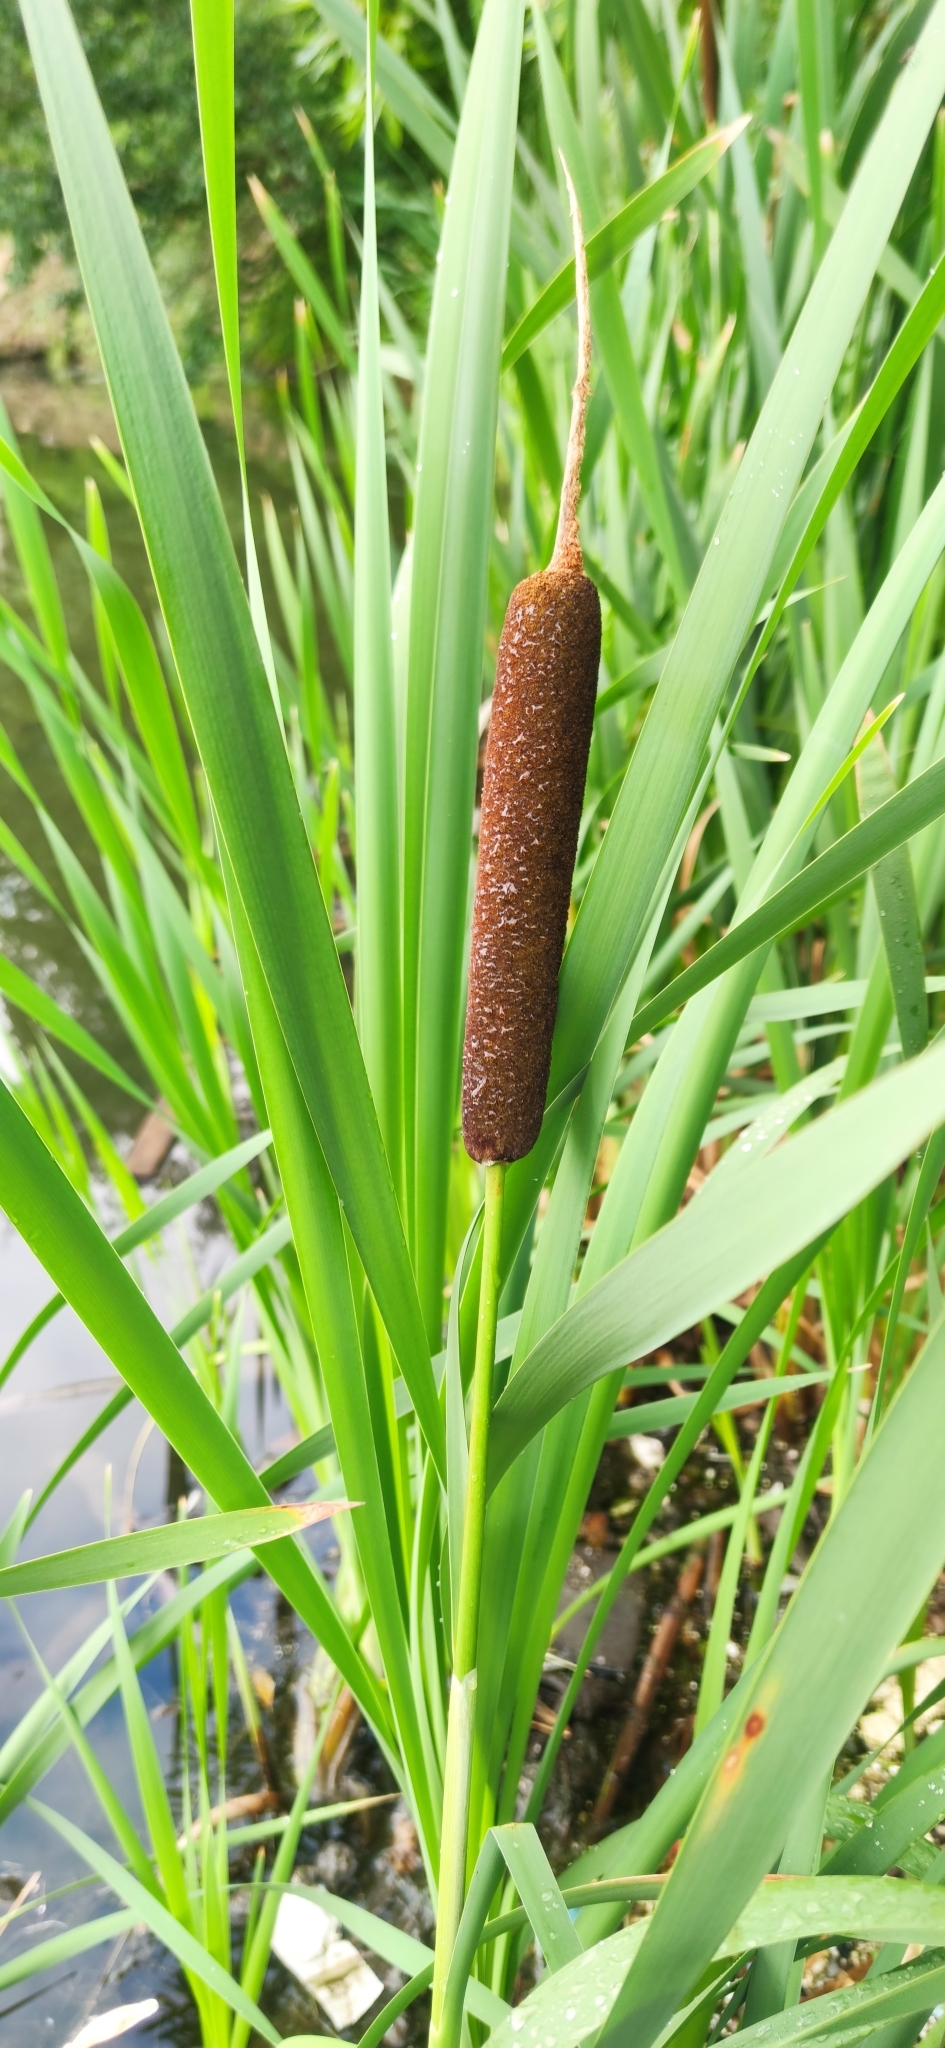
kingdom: Plantae
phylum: Tracheophyta
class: Liliopsida
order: Poales
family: Typhaceae
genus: Typha
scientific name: Typha latifolia
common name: Broadleaf cattail
